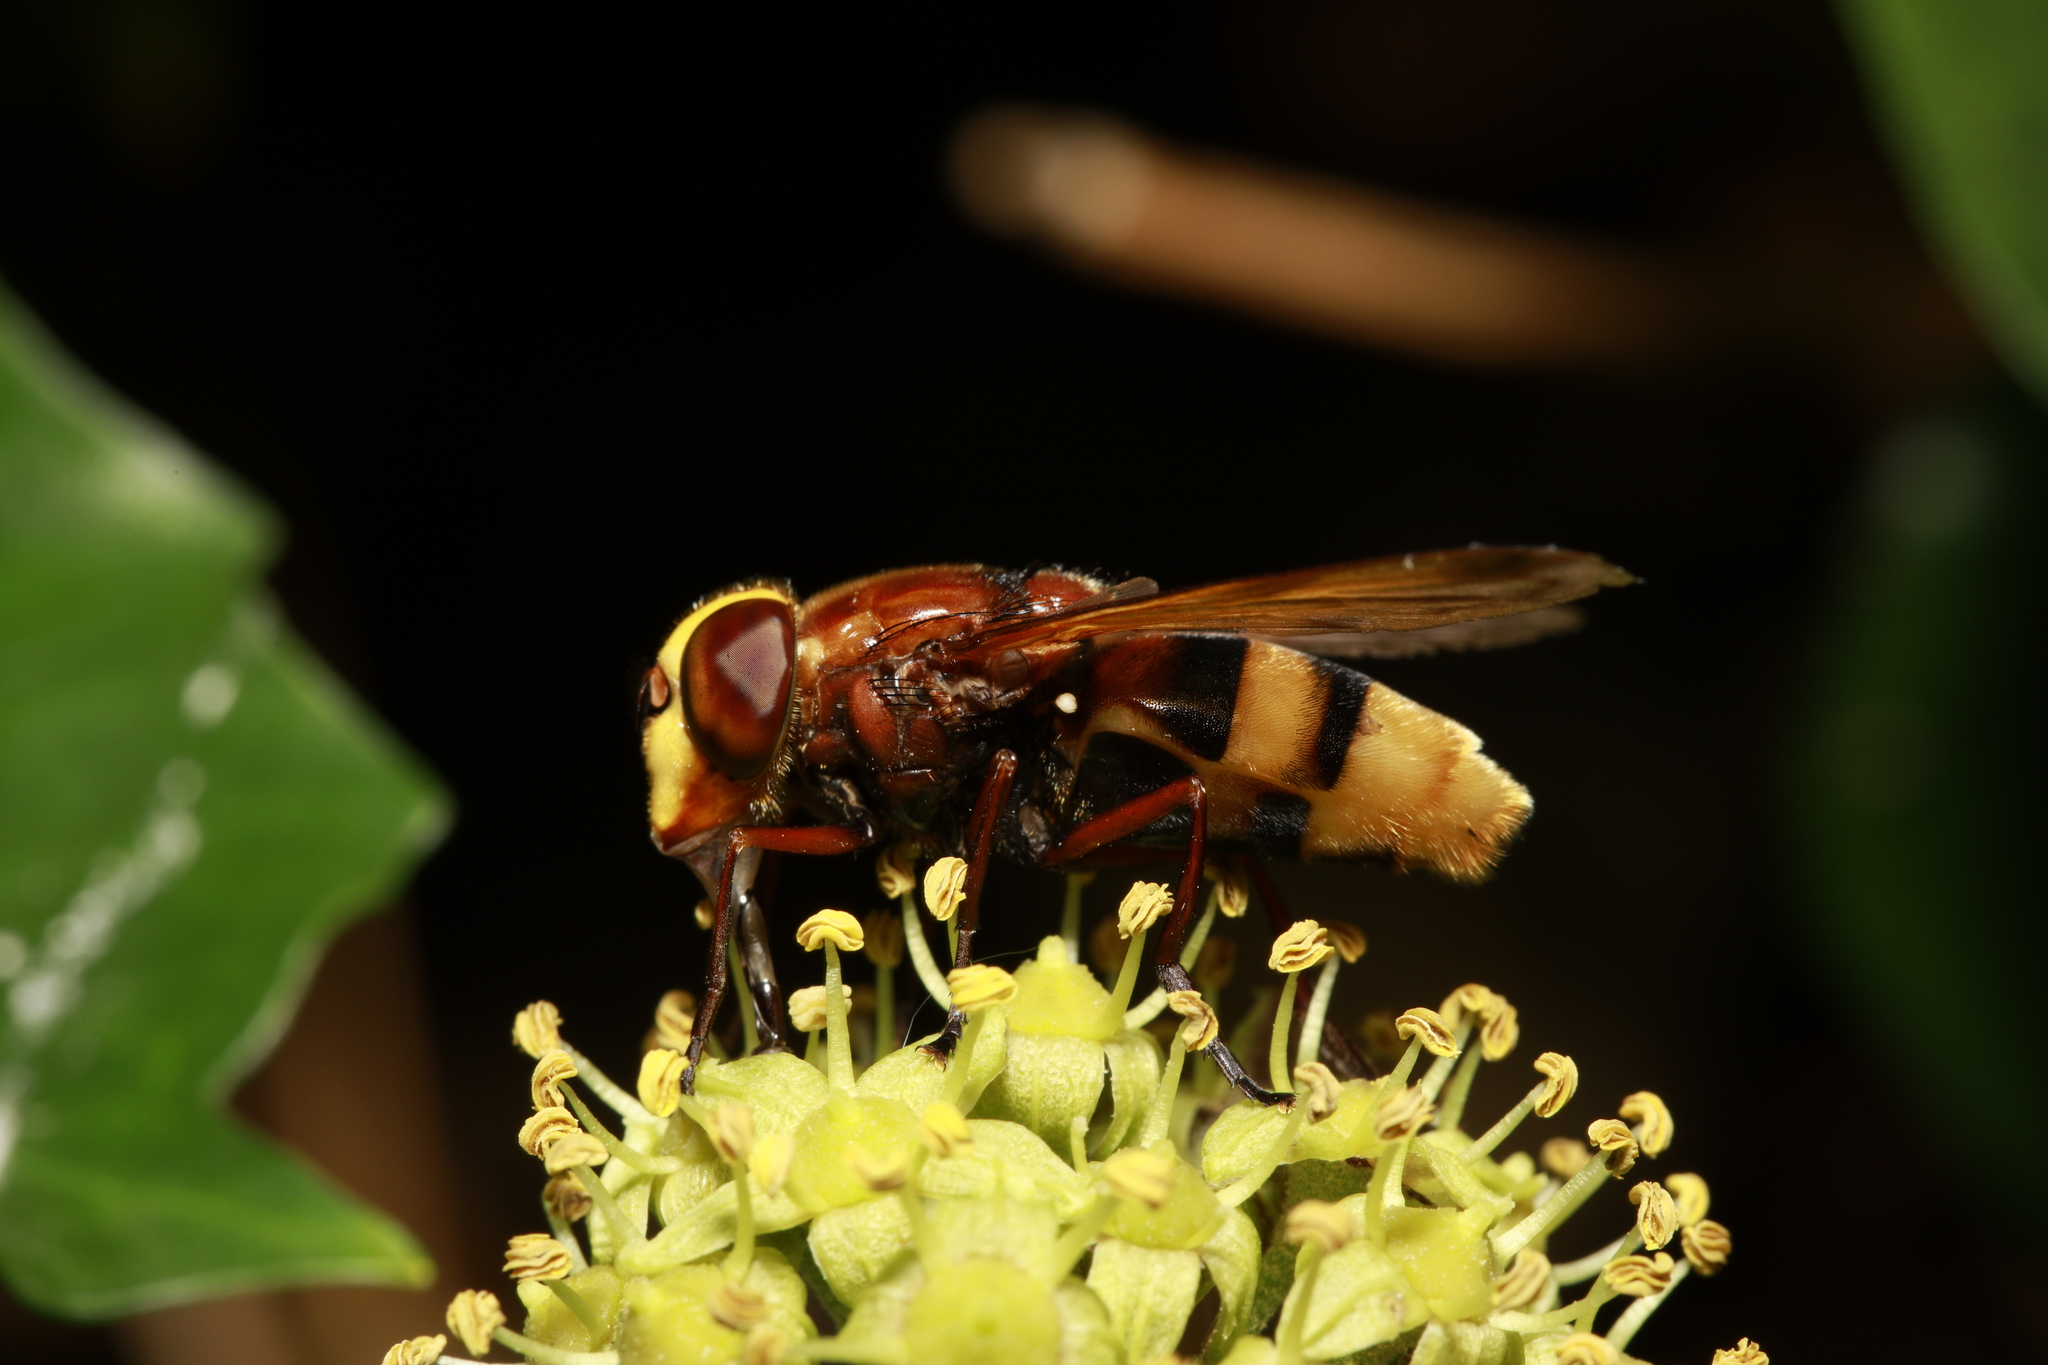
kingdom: Animalia
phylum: Arthropoda
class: Insecta
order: Diptera
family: Syrphidae
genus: Volucella
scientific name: Volucella zonaria
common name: Hornet hoverfly
